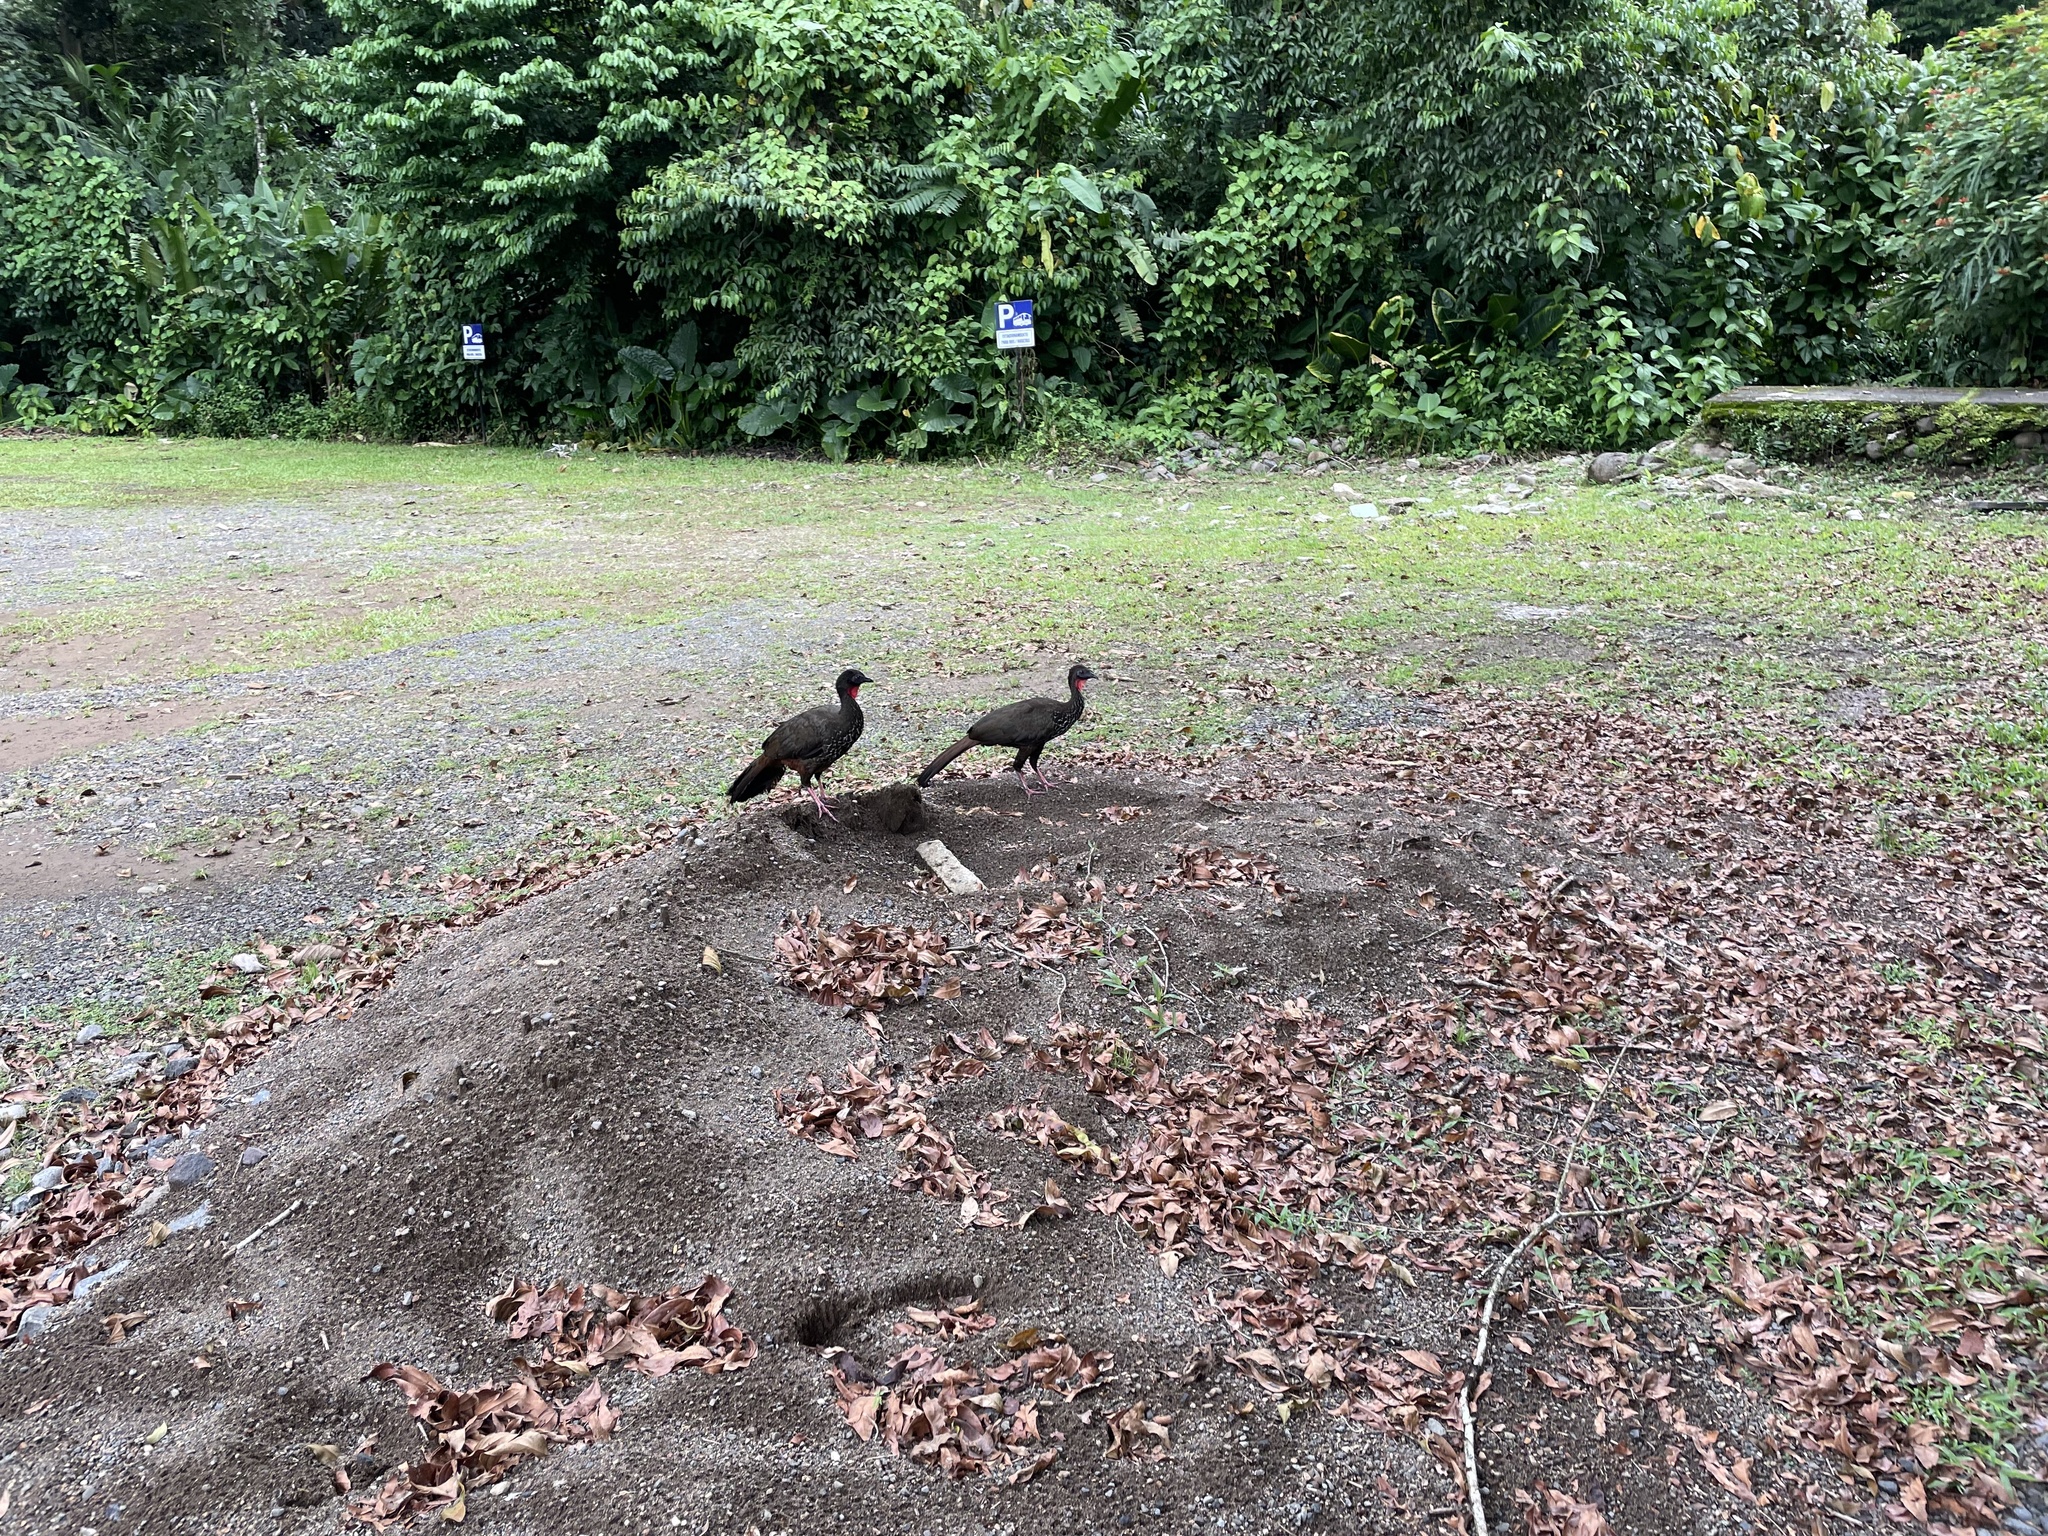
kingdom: Animalia
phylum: Chordata
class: Aves
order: Galliformes
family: Cracidae
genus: Penelope
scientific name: Penelope purpurascens
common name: Crested guan
